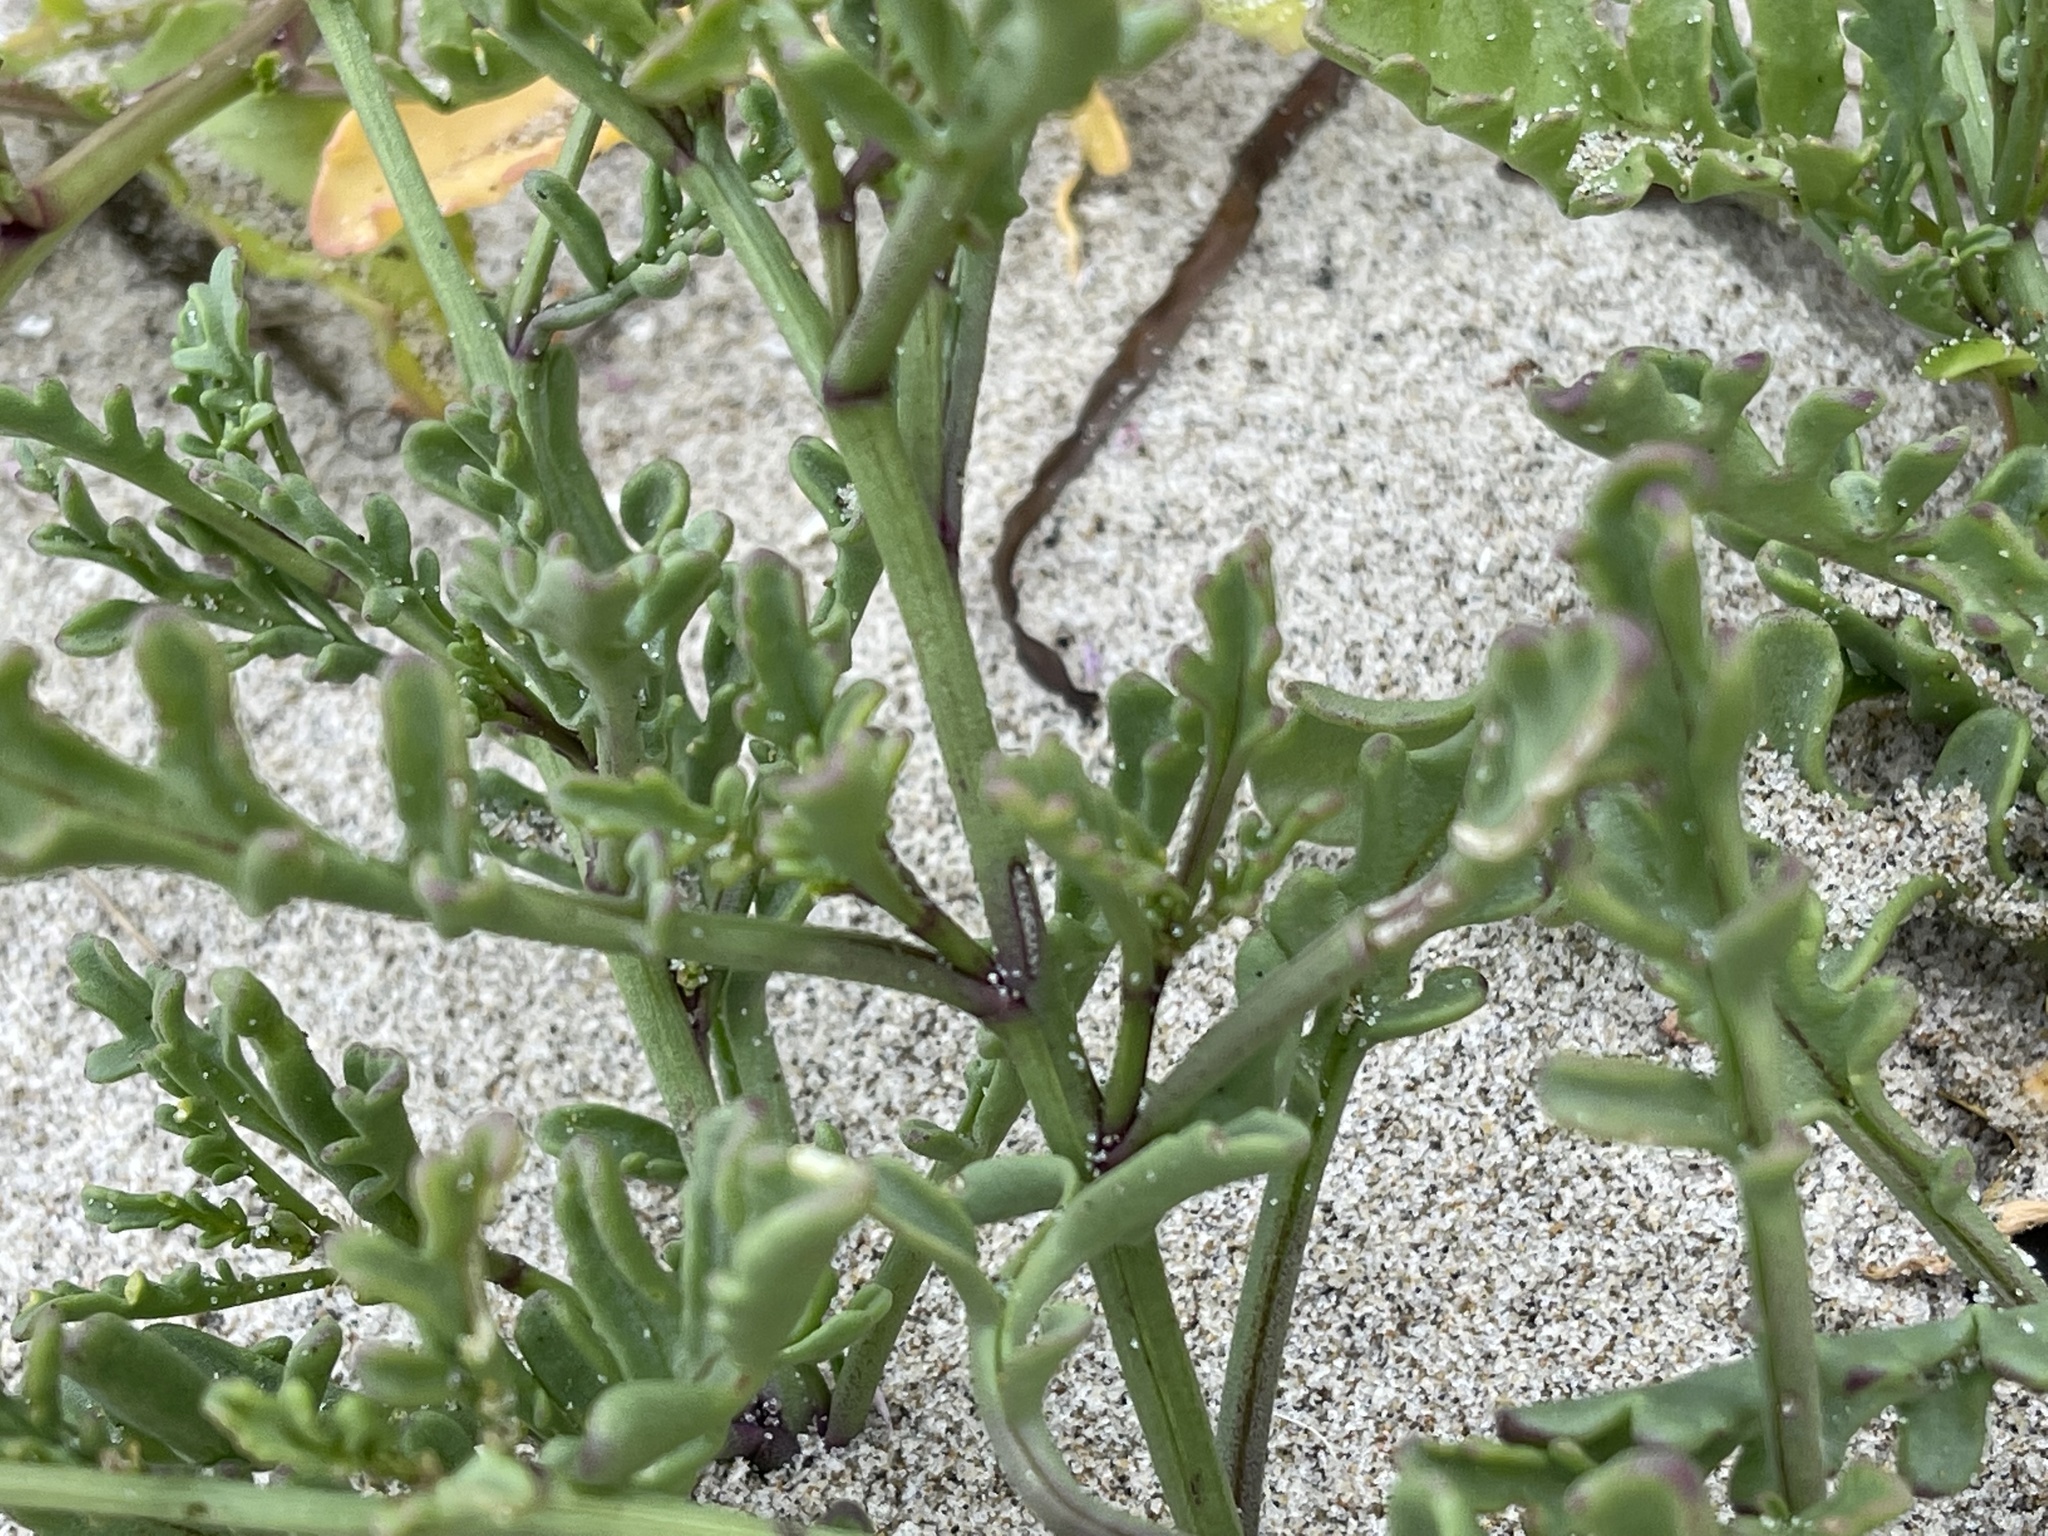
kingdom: Plantae
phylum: Tracheophyta
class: Magnoliopsida
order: Brassicales
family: Brassicaceae
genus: Cakile
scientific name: Cakile maritima
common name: Sea rocket
